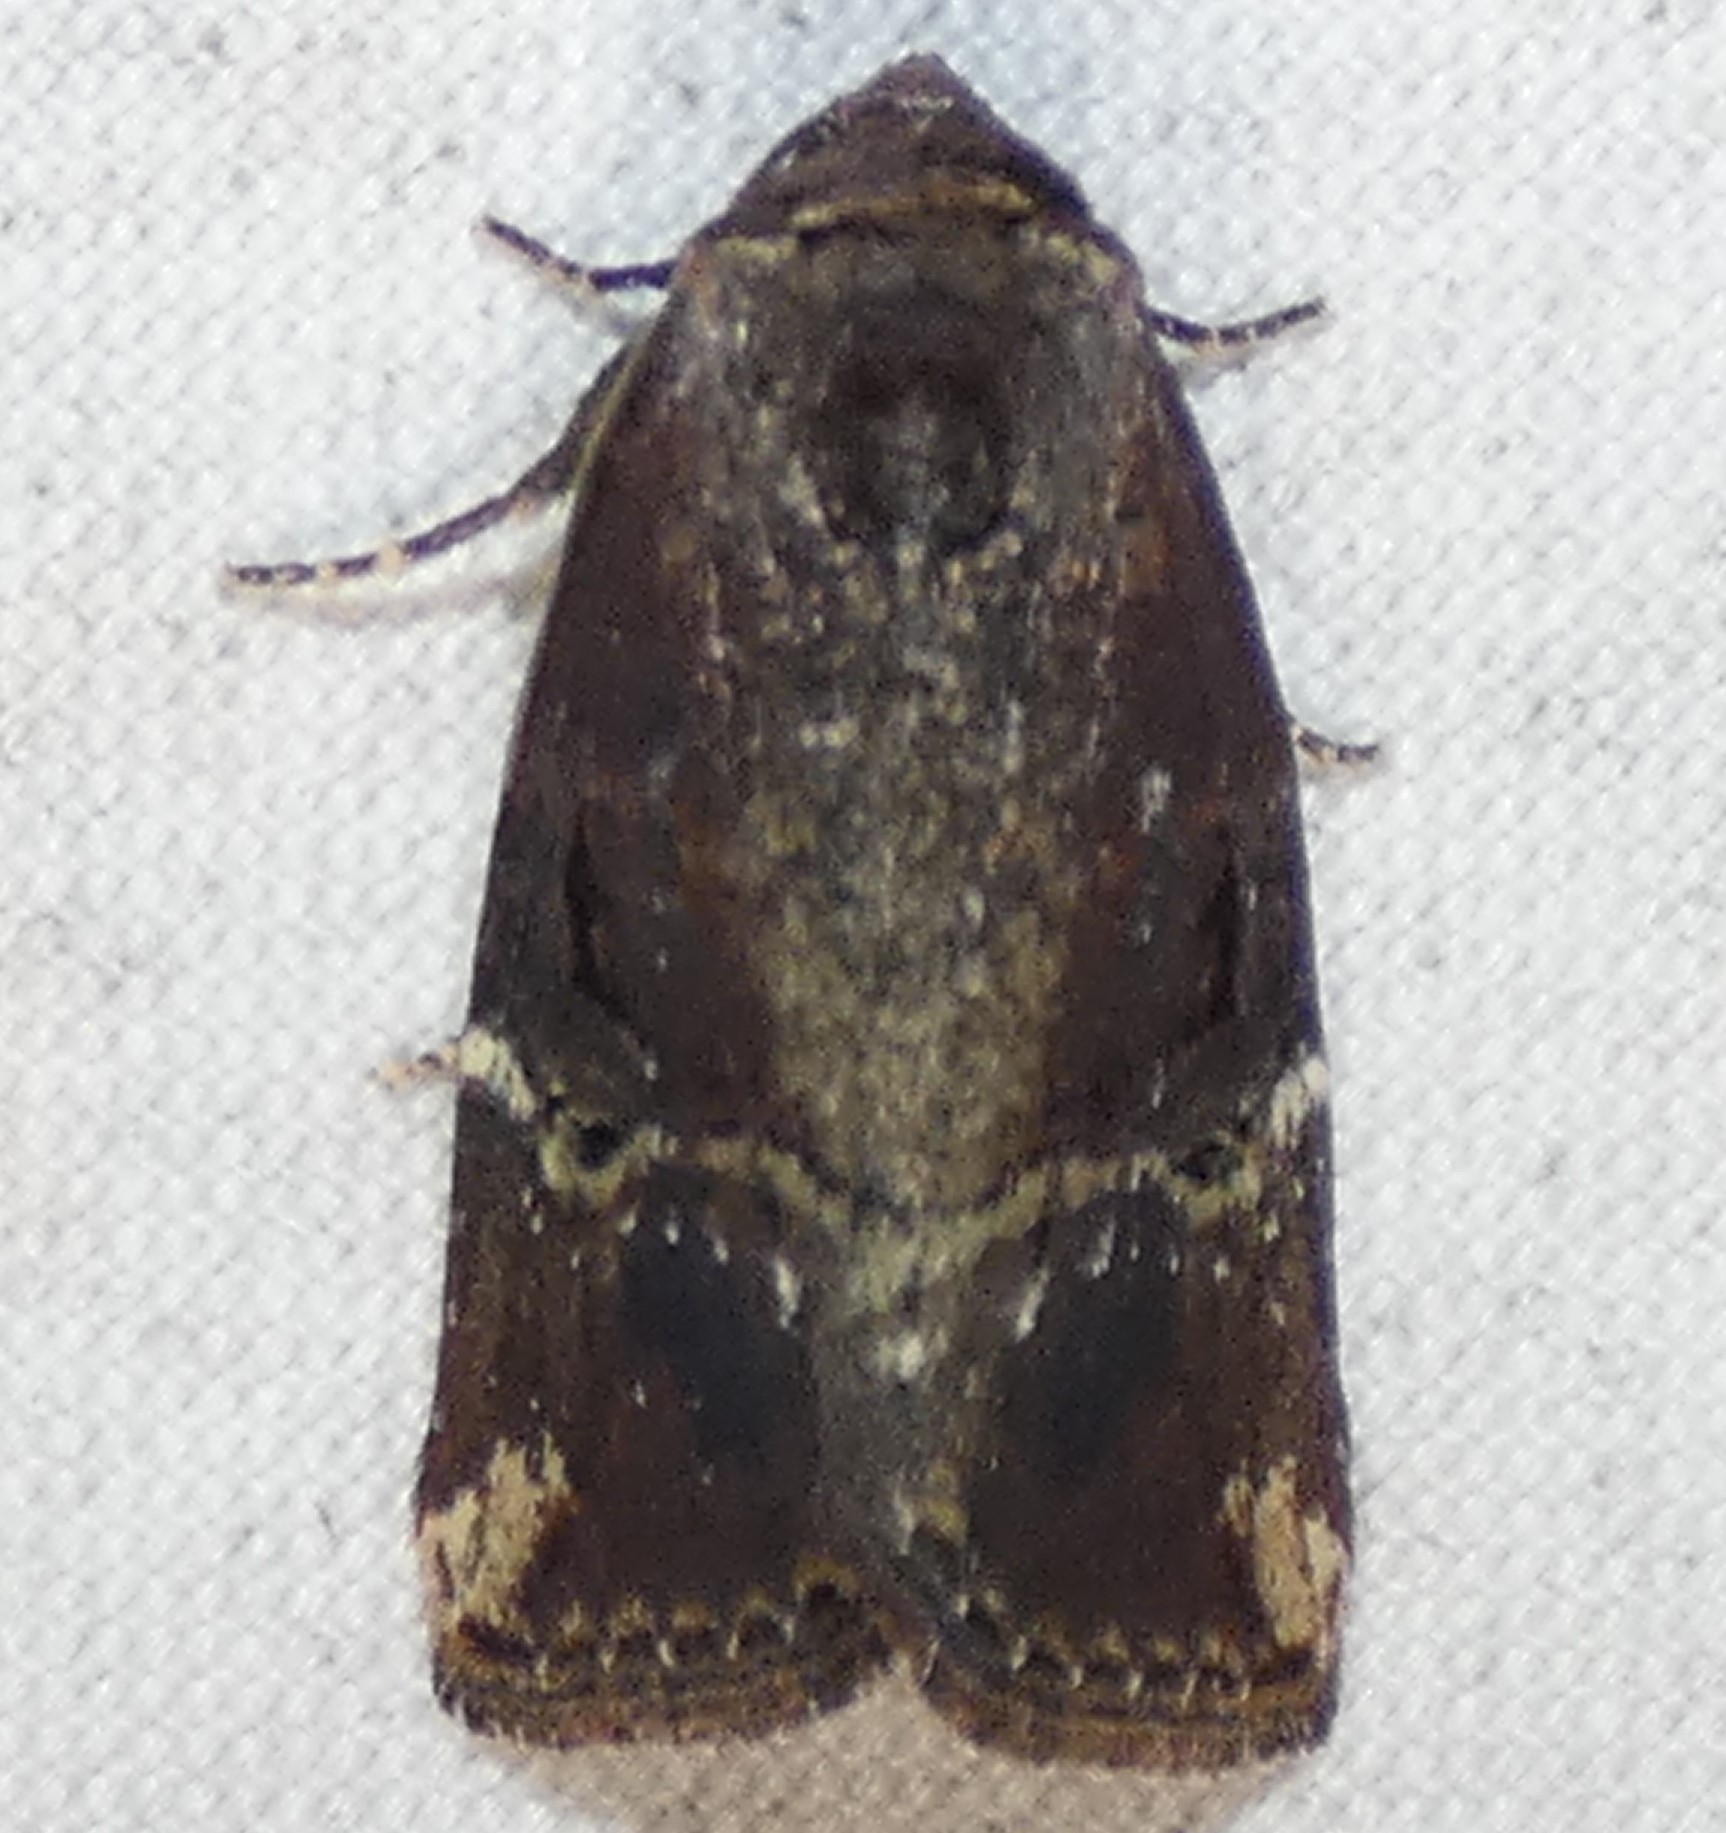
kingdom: Animalia
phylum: Arthropoda
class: Insecta
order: Lepidoptera
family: Noctuidae
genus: Elaphria
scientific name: Elaphria versicolor
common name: Fir harlequin
